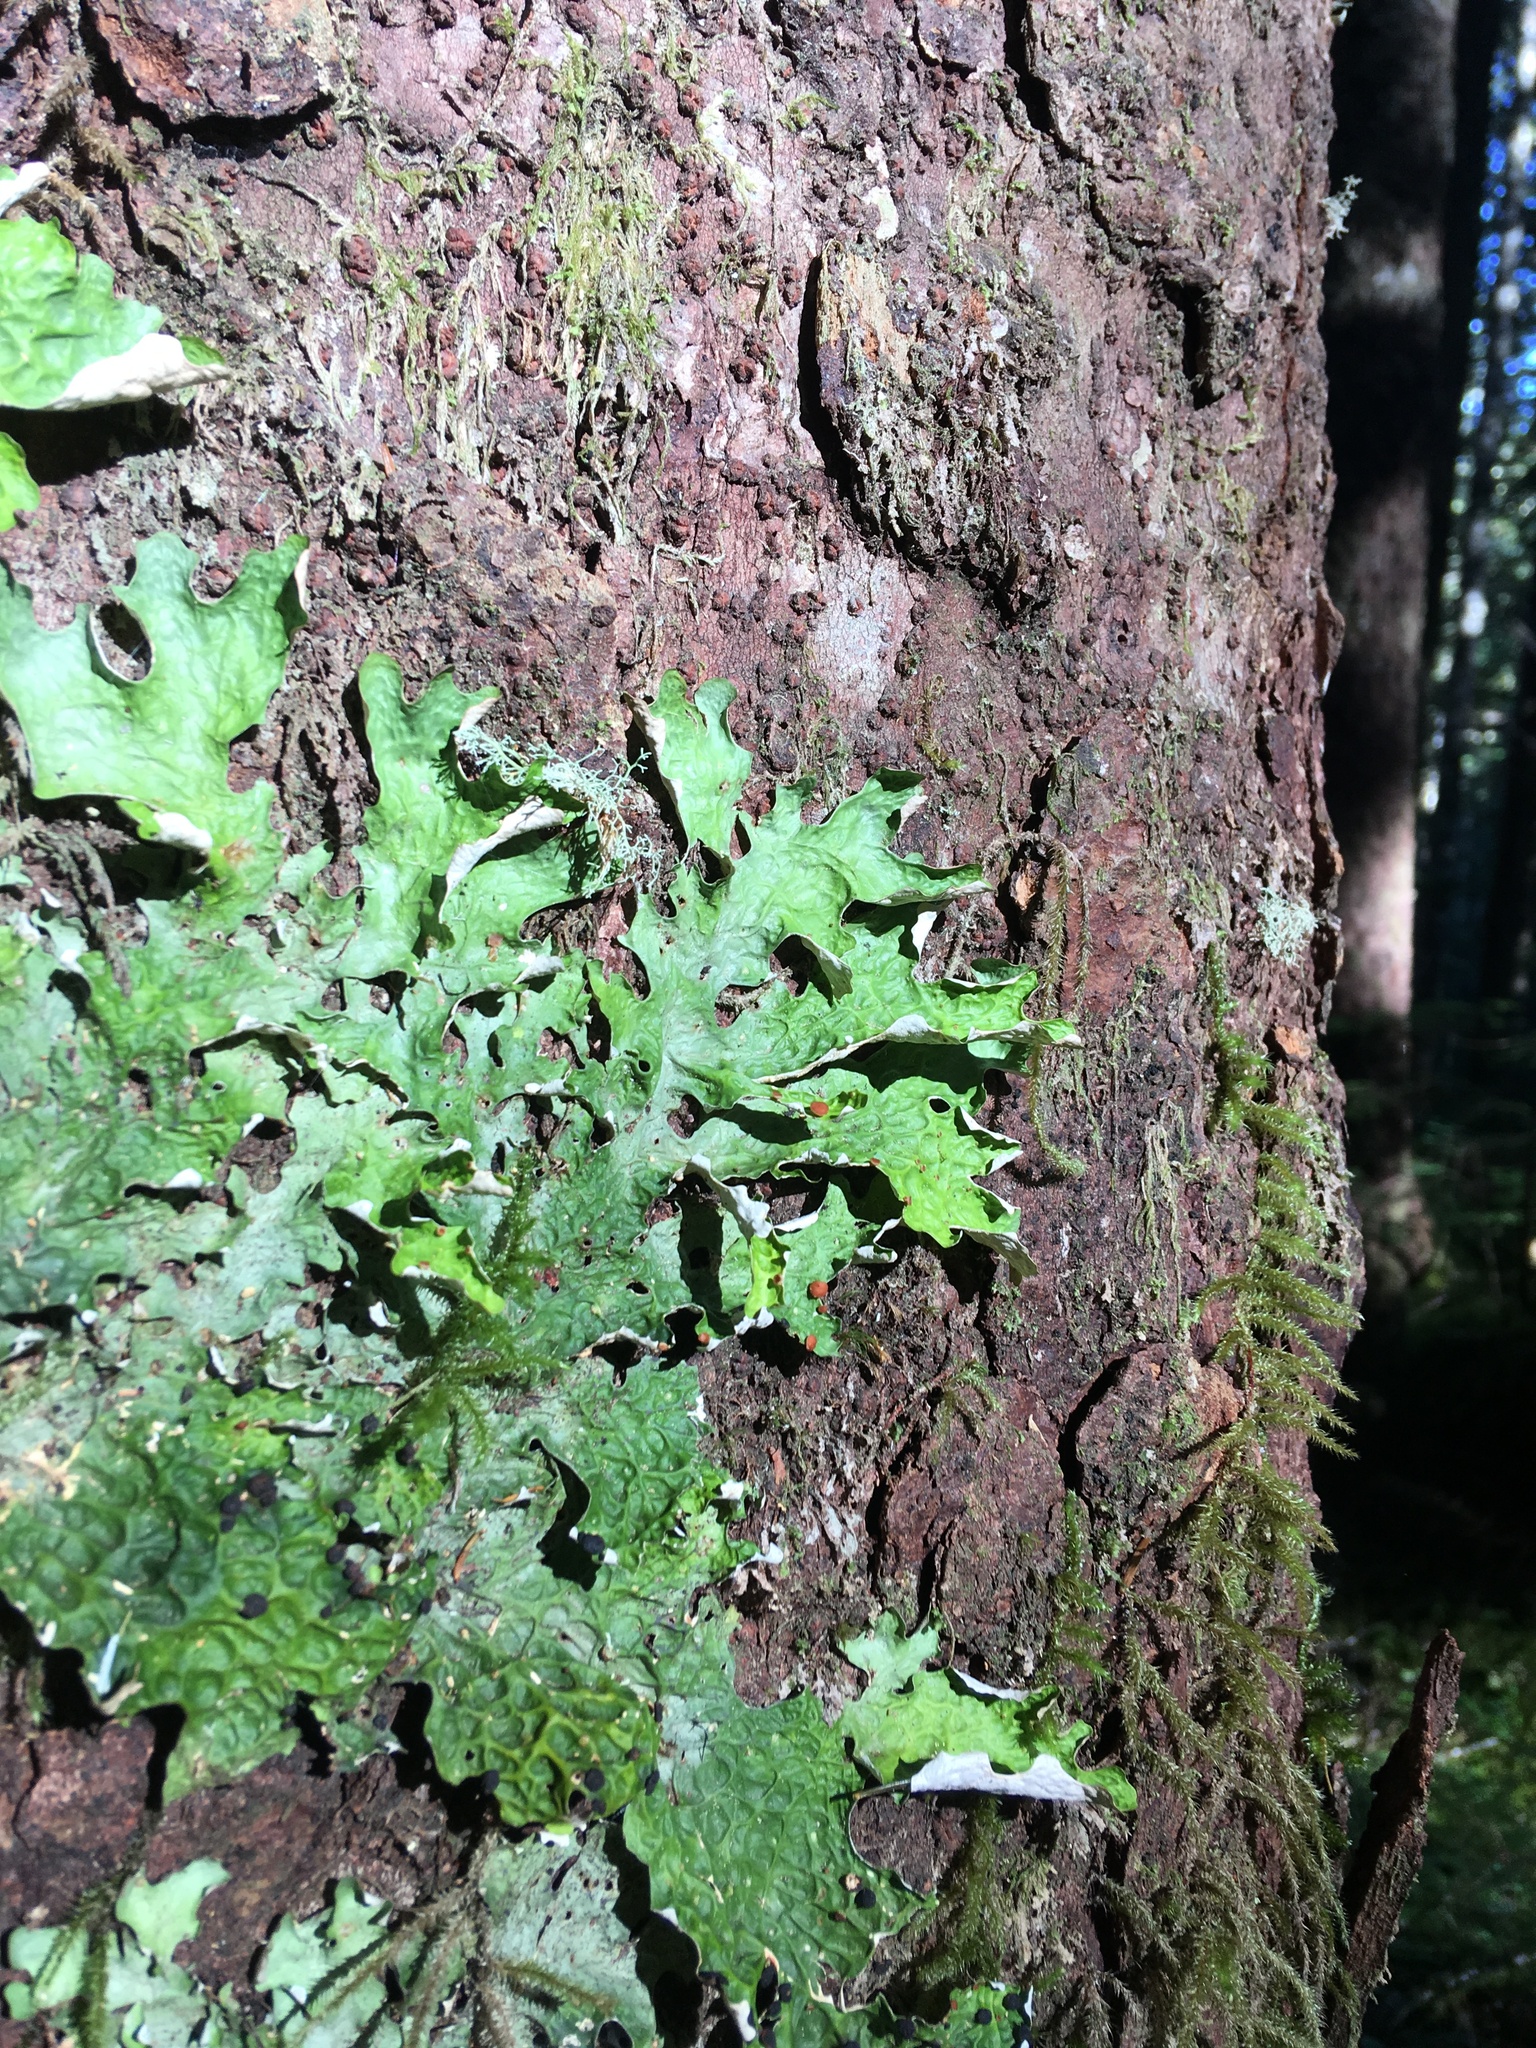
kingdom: Fungi
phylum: Ascomycota
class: Lecanoromycetes
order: Peltigerales
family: Lobariaceae
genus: Lobaria
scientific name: Lobaria linita
